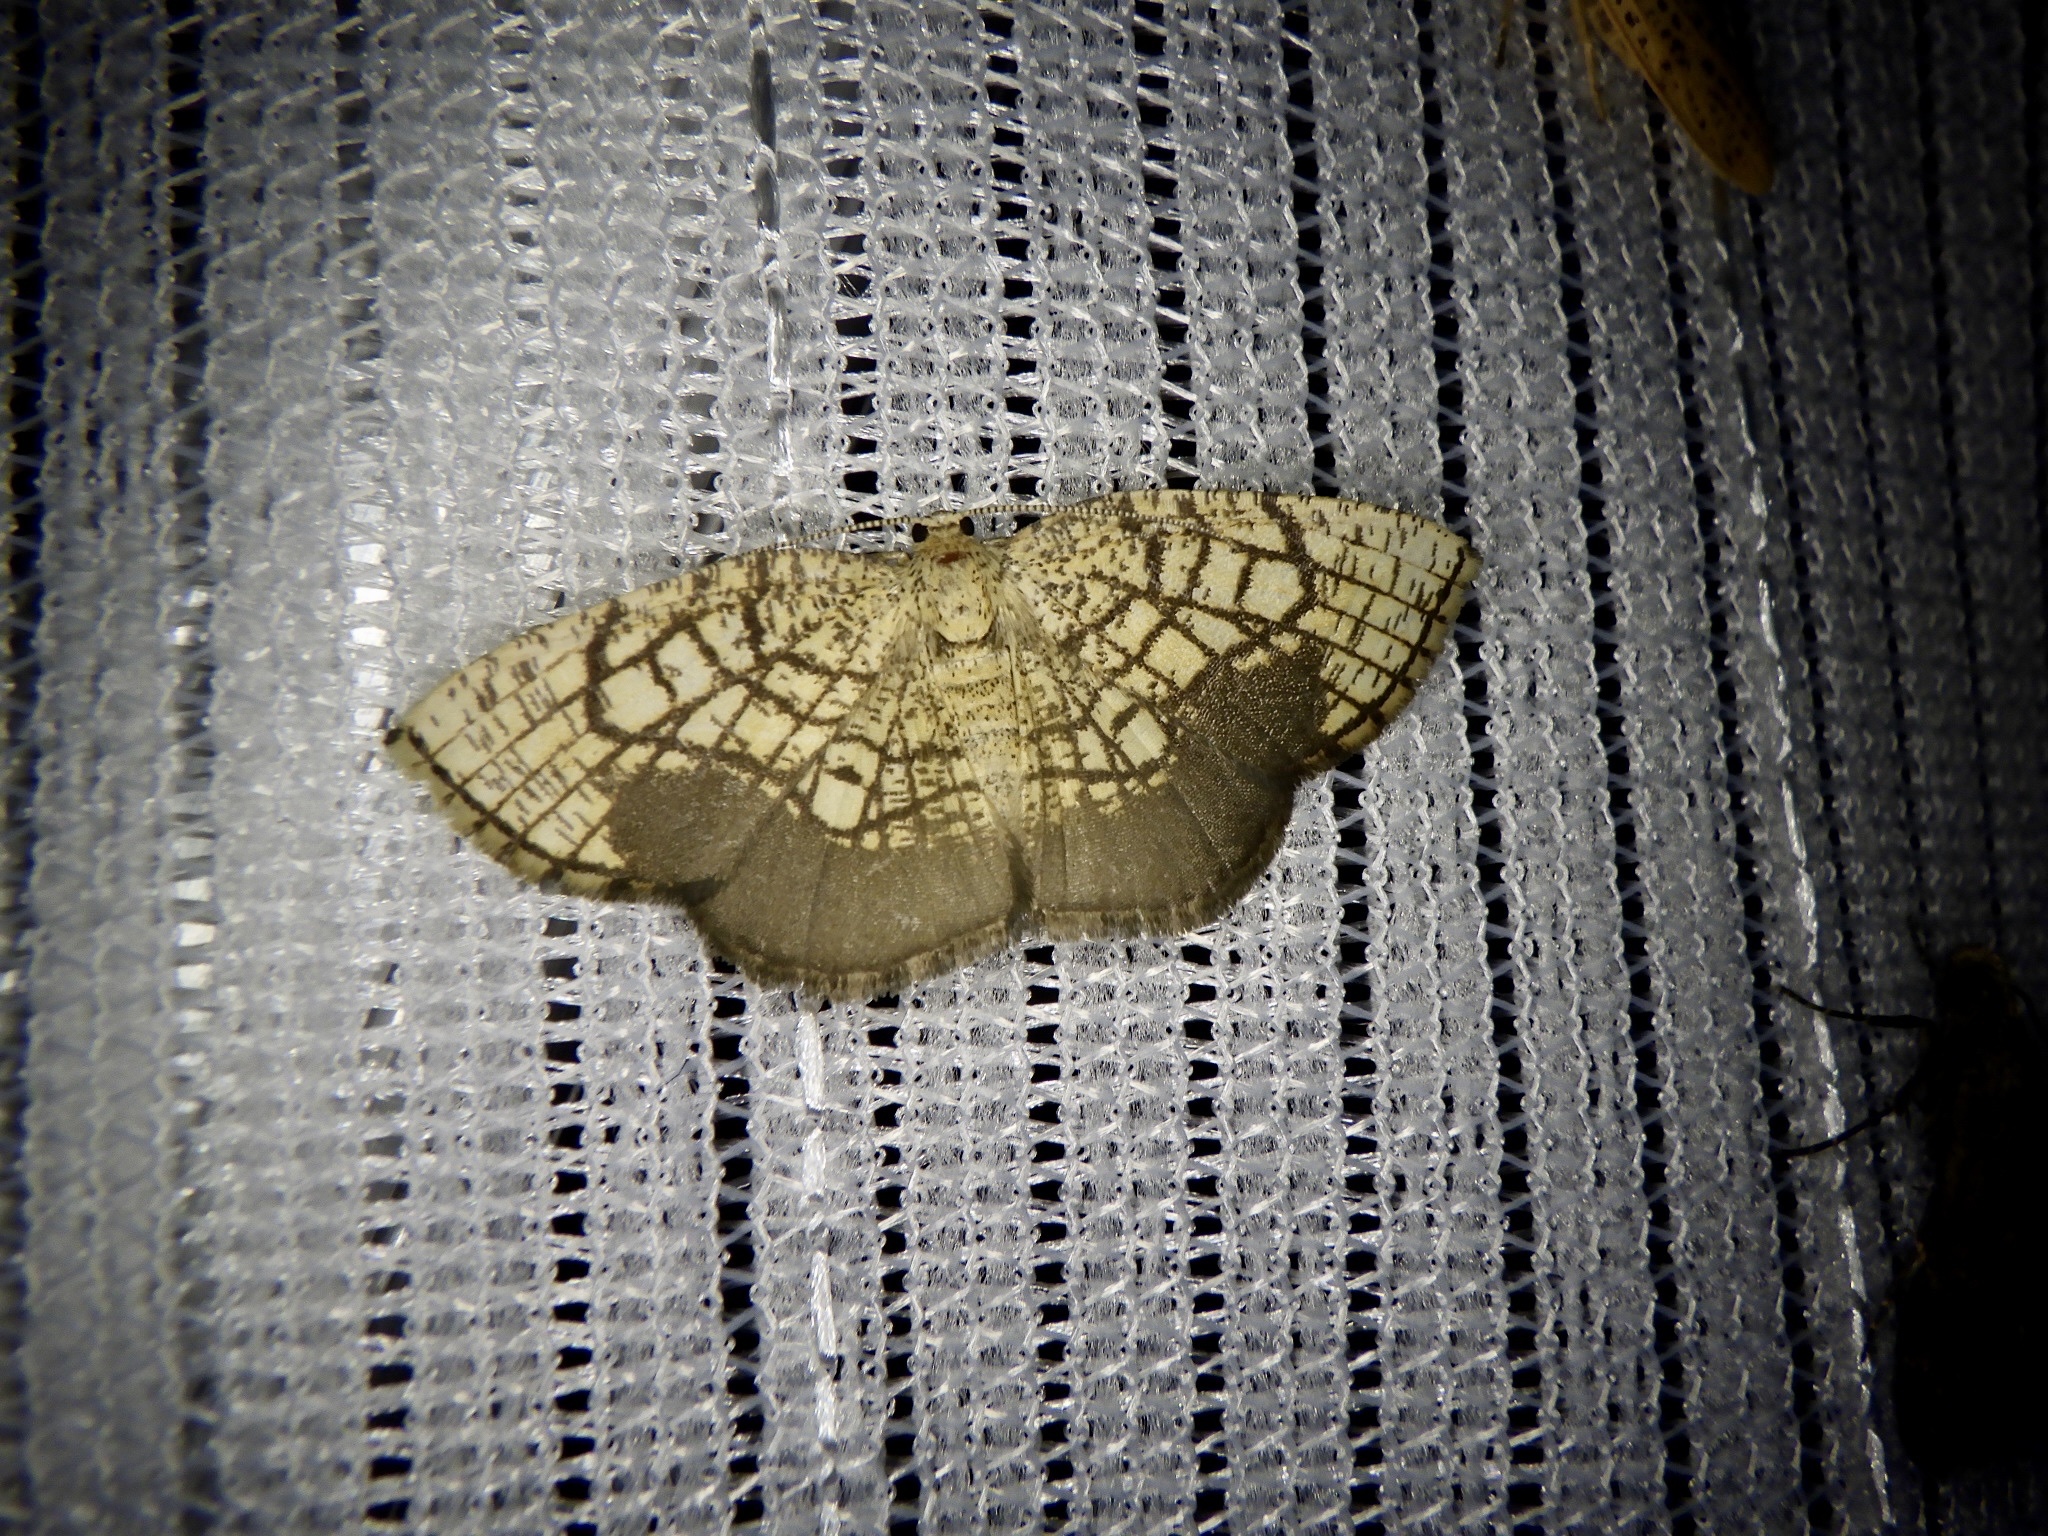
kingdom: Animalia
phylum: Arthropoda
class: Insecta
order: Lepidoptera
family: Geometridae
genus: Cabera
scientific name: Cabera griseolimbata
